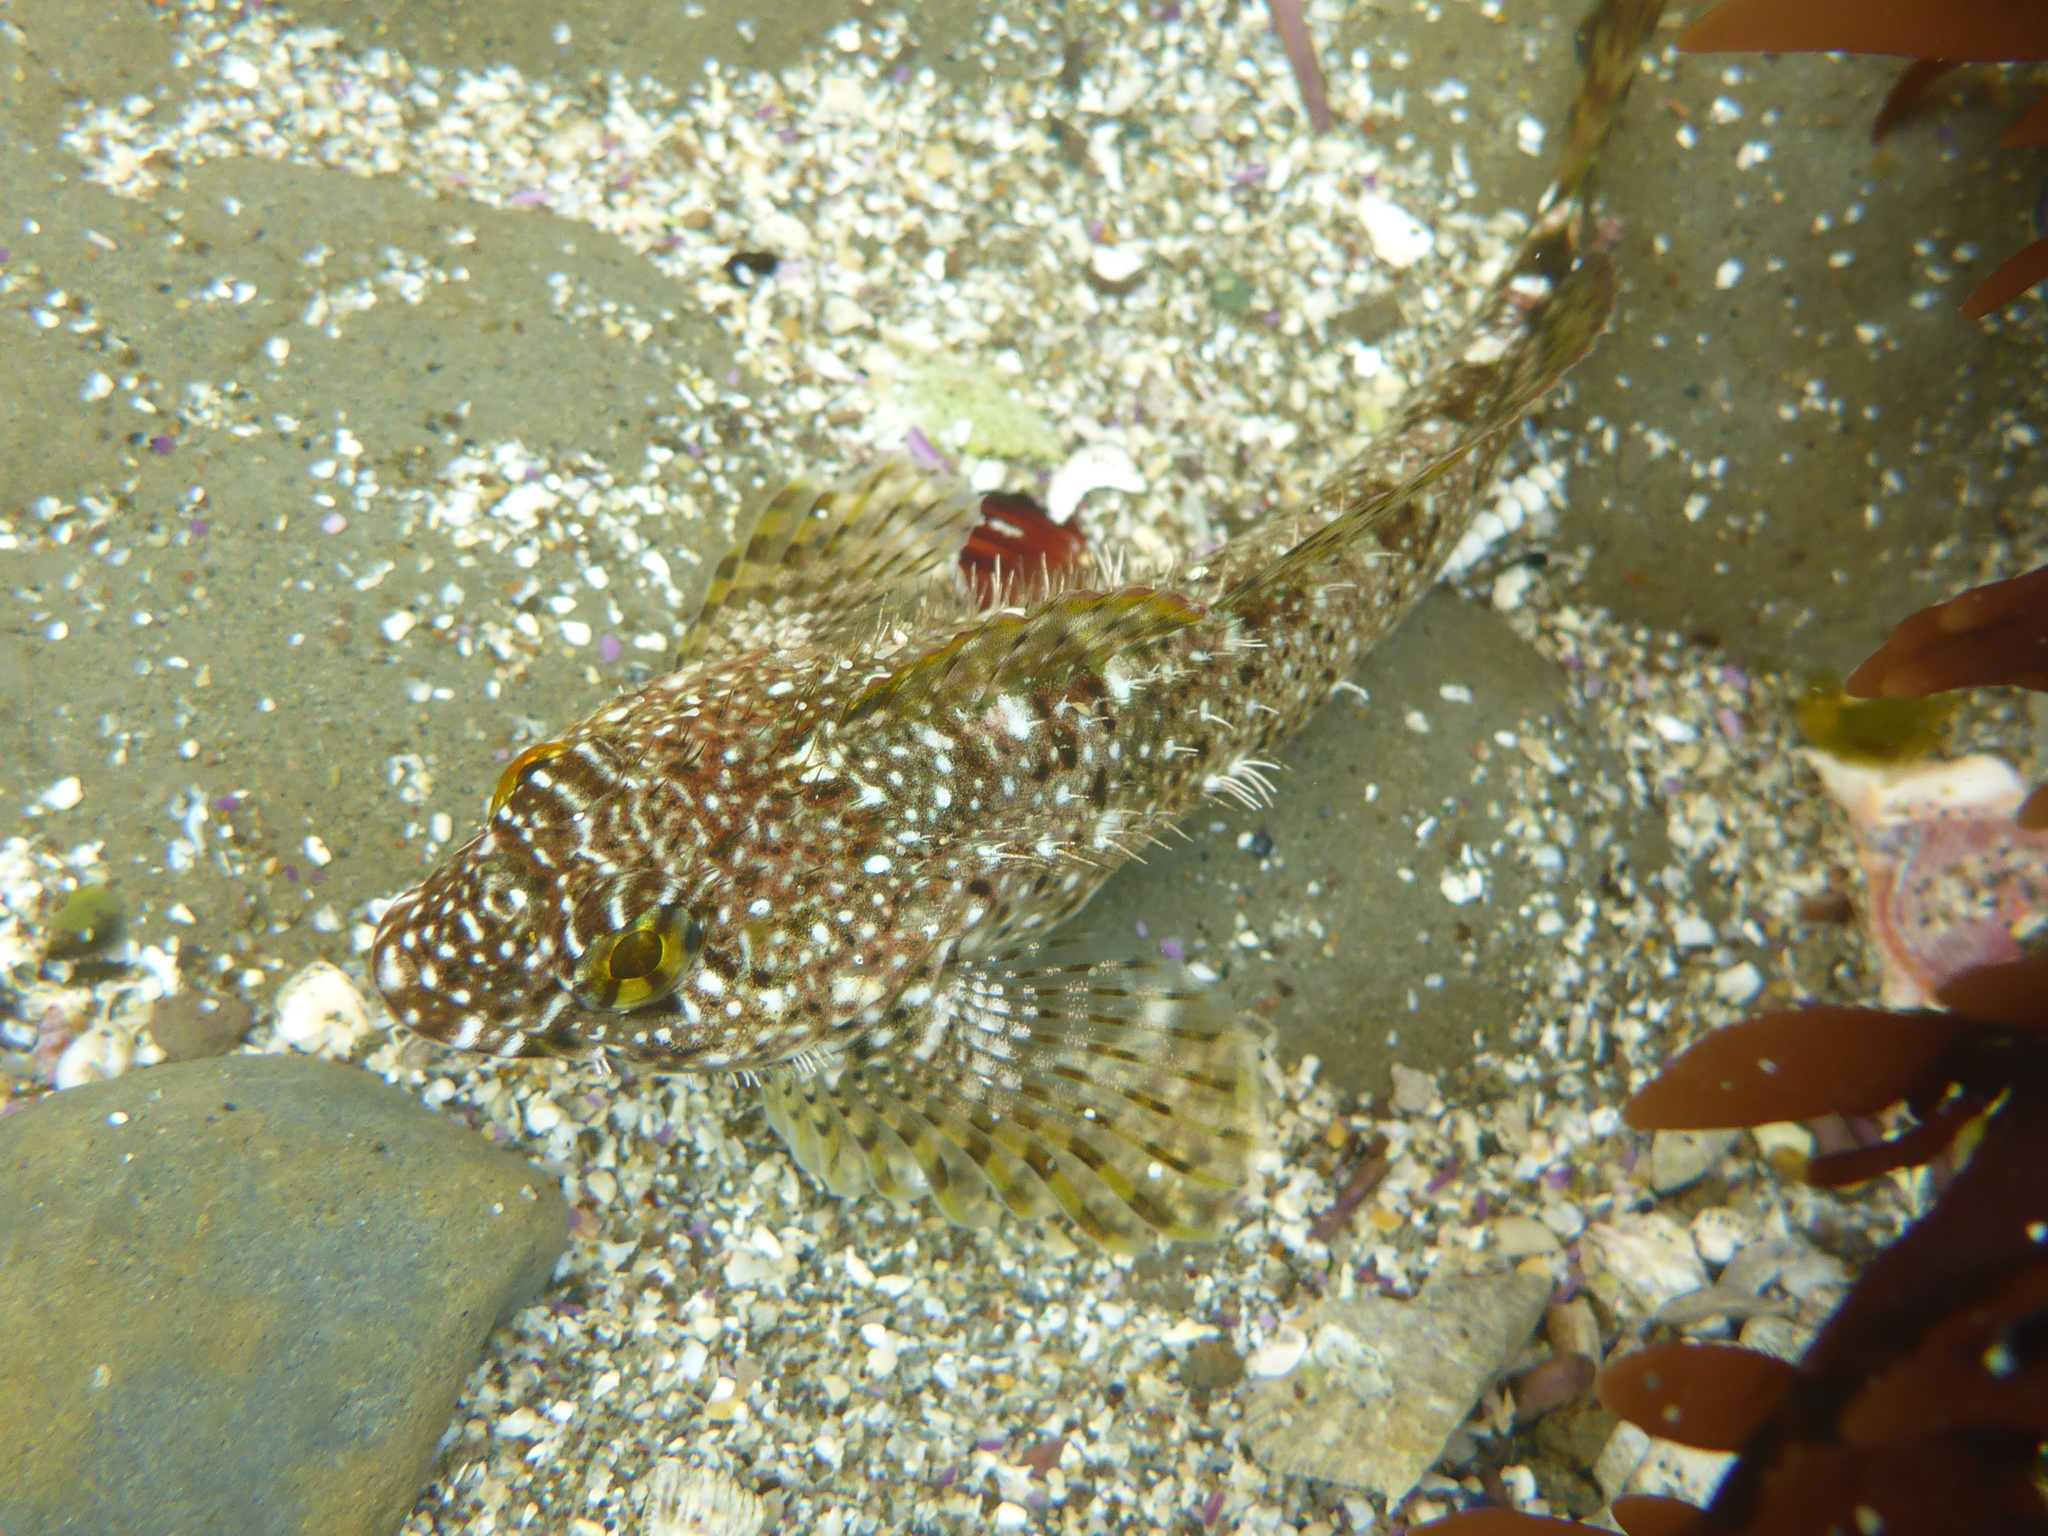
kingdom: Animalia
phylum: Chordata
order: Scorpaeniformes
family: Cottidae
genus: Clinocottus
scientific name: Clinocottus analis
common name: Woolly sculpin
